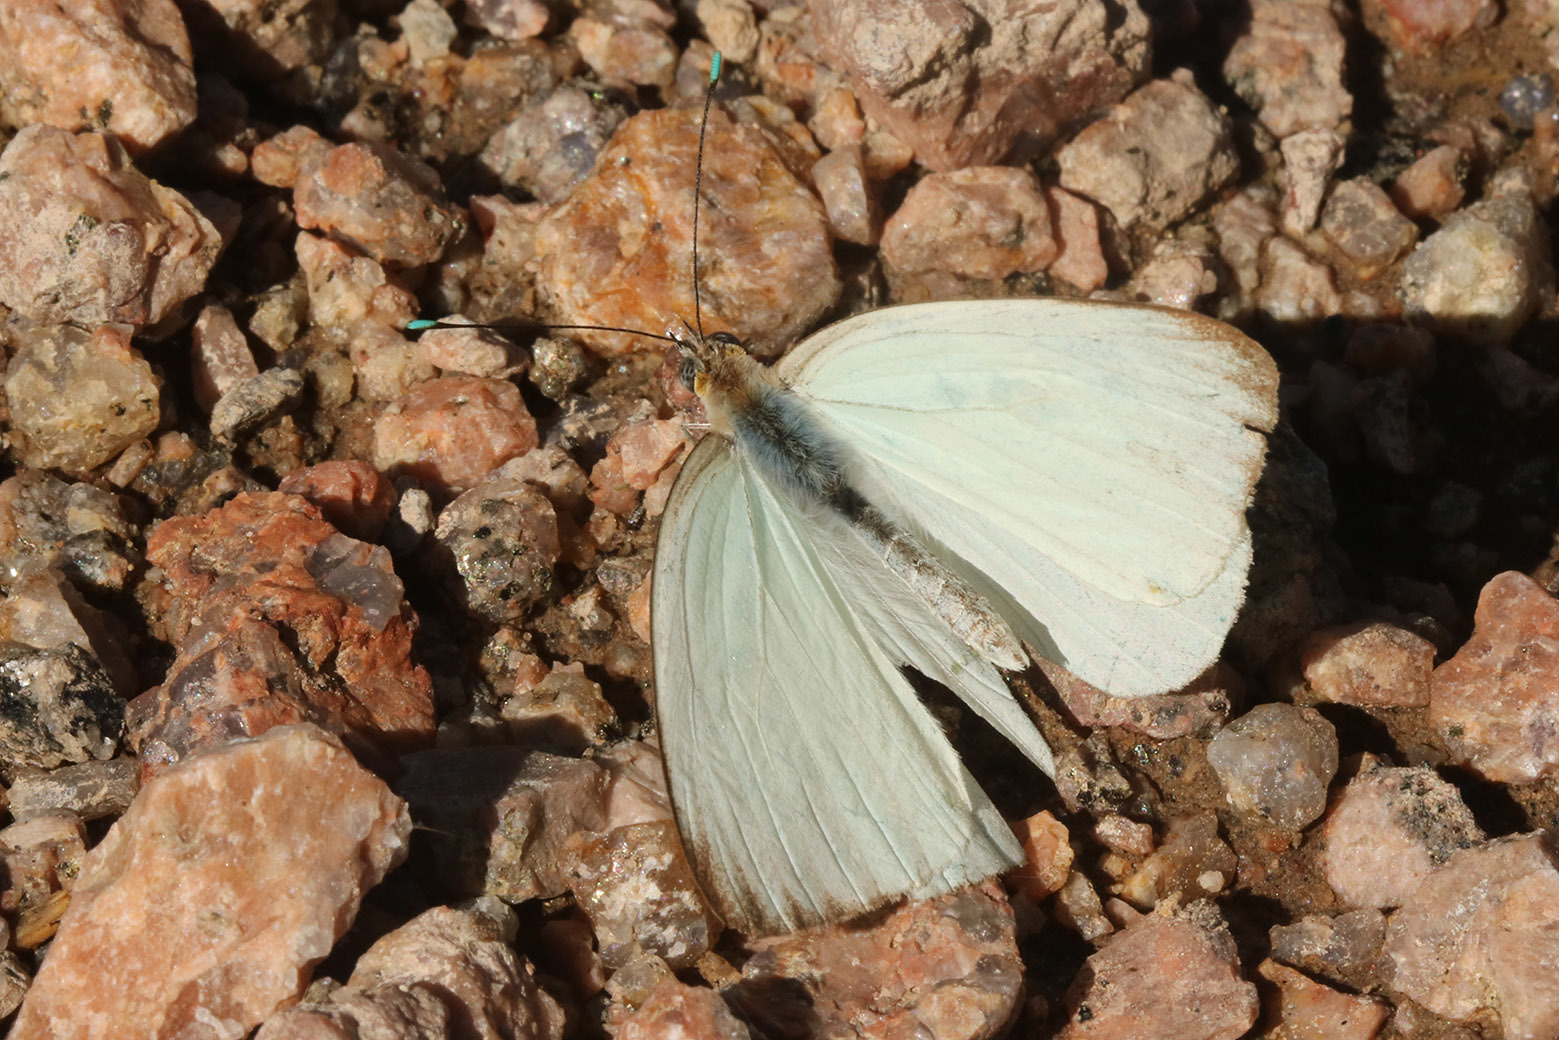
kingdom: Animalia
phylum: Arthropoda
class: Insecta
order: Lepidoptera
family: Pieridae
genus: Ascia
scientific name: Ascia monuste
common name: Great southern white
